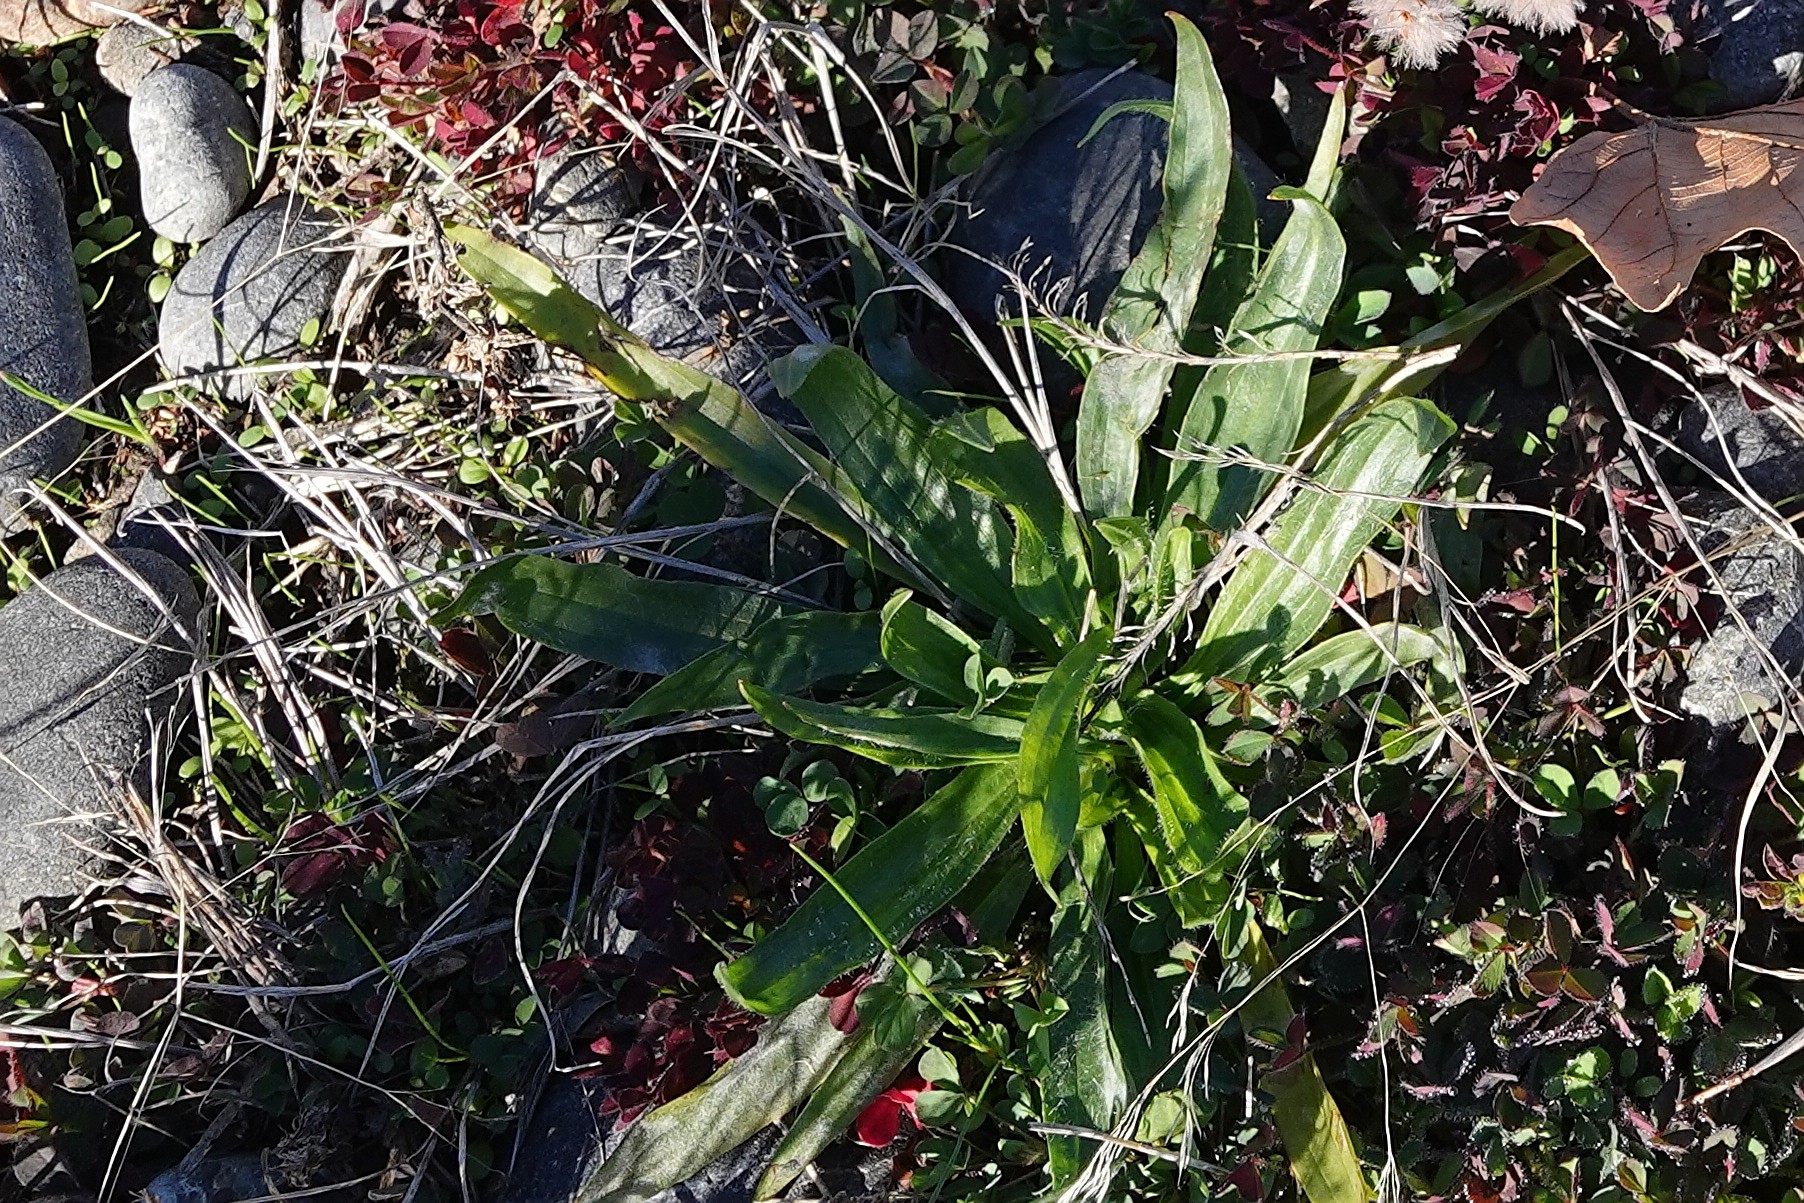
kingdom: Plantae
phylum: Tracheophyta
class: Magnoliopsida
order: Lamiales
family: Plantaginaceae
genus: Plantago
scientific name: Plantago lanceolata
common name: Ribwort plantain
